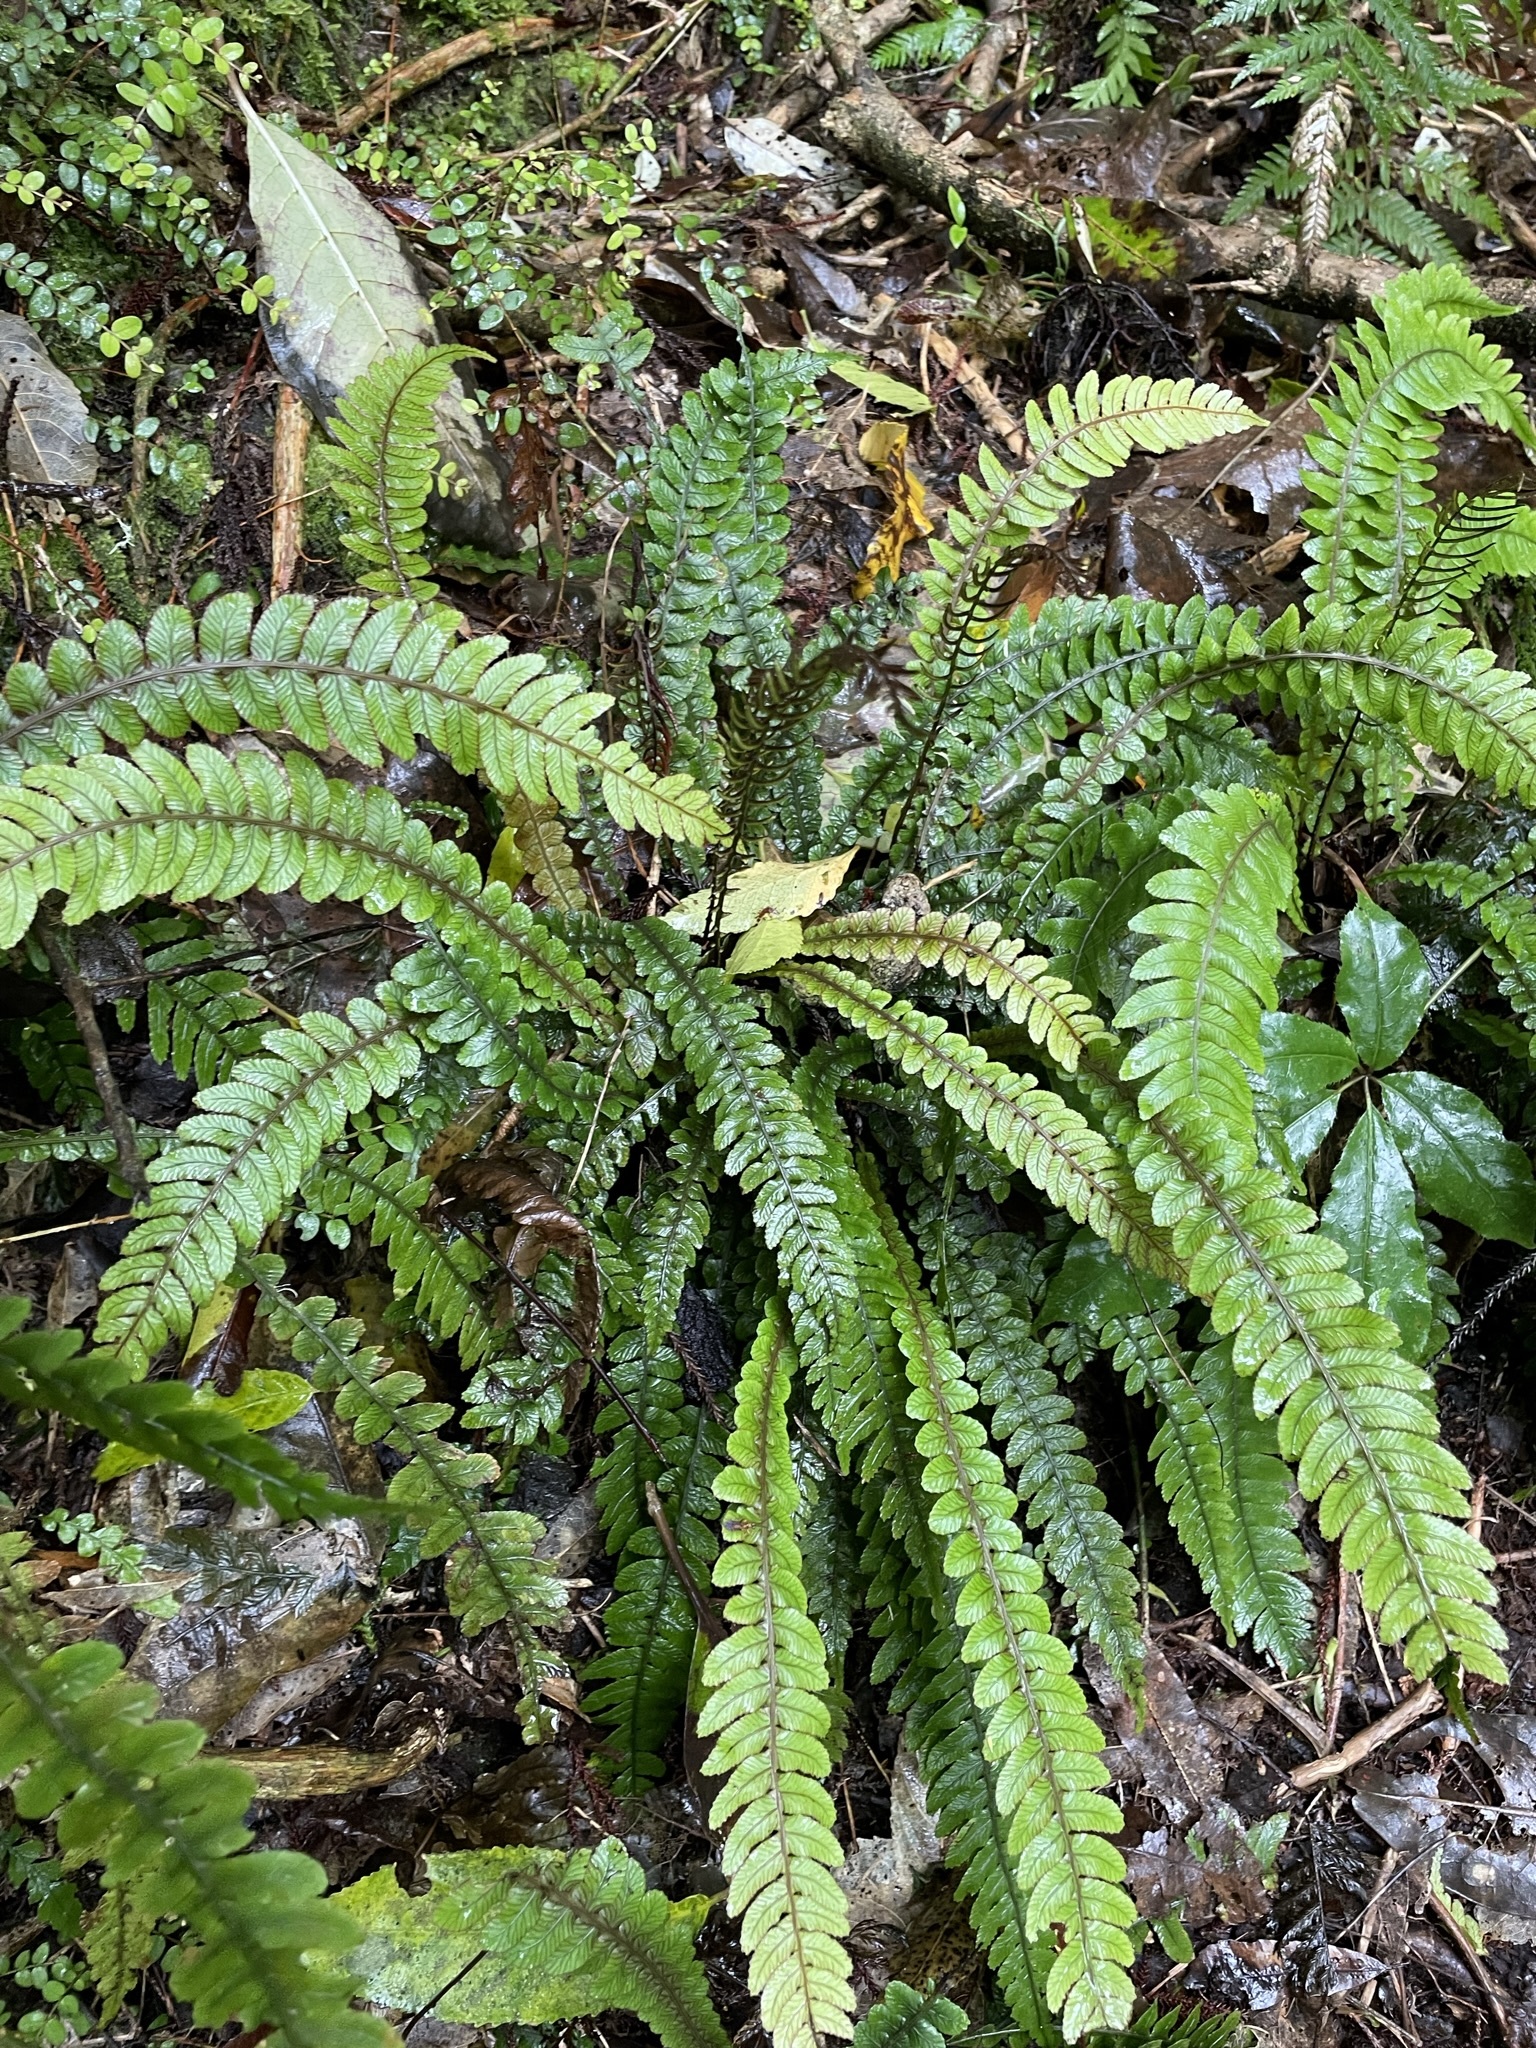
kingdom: Plantae
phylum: Tracheophyta
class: Polypodiopsida
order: Polypodiales
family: Blechnaceae
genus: Austroblechnum
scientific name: Austroblechnum membranaceum
